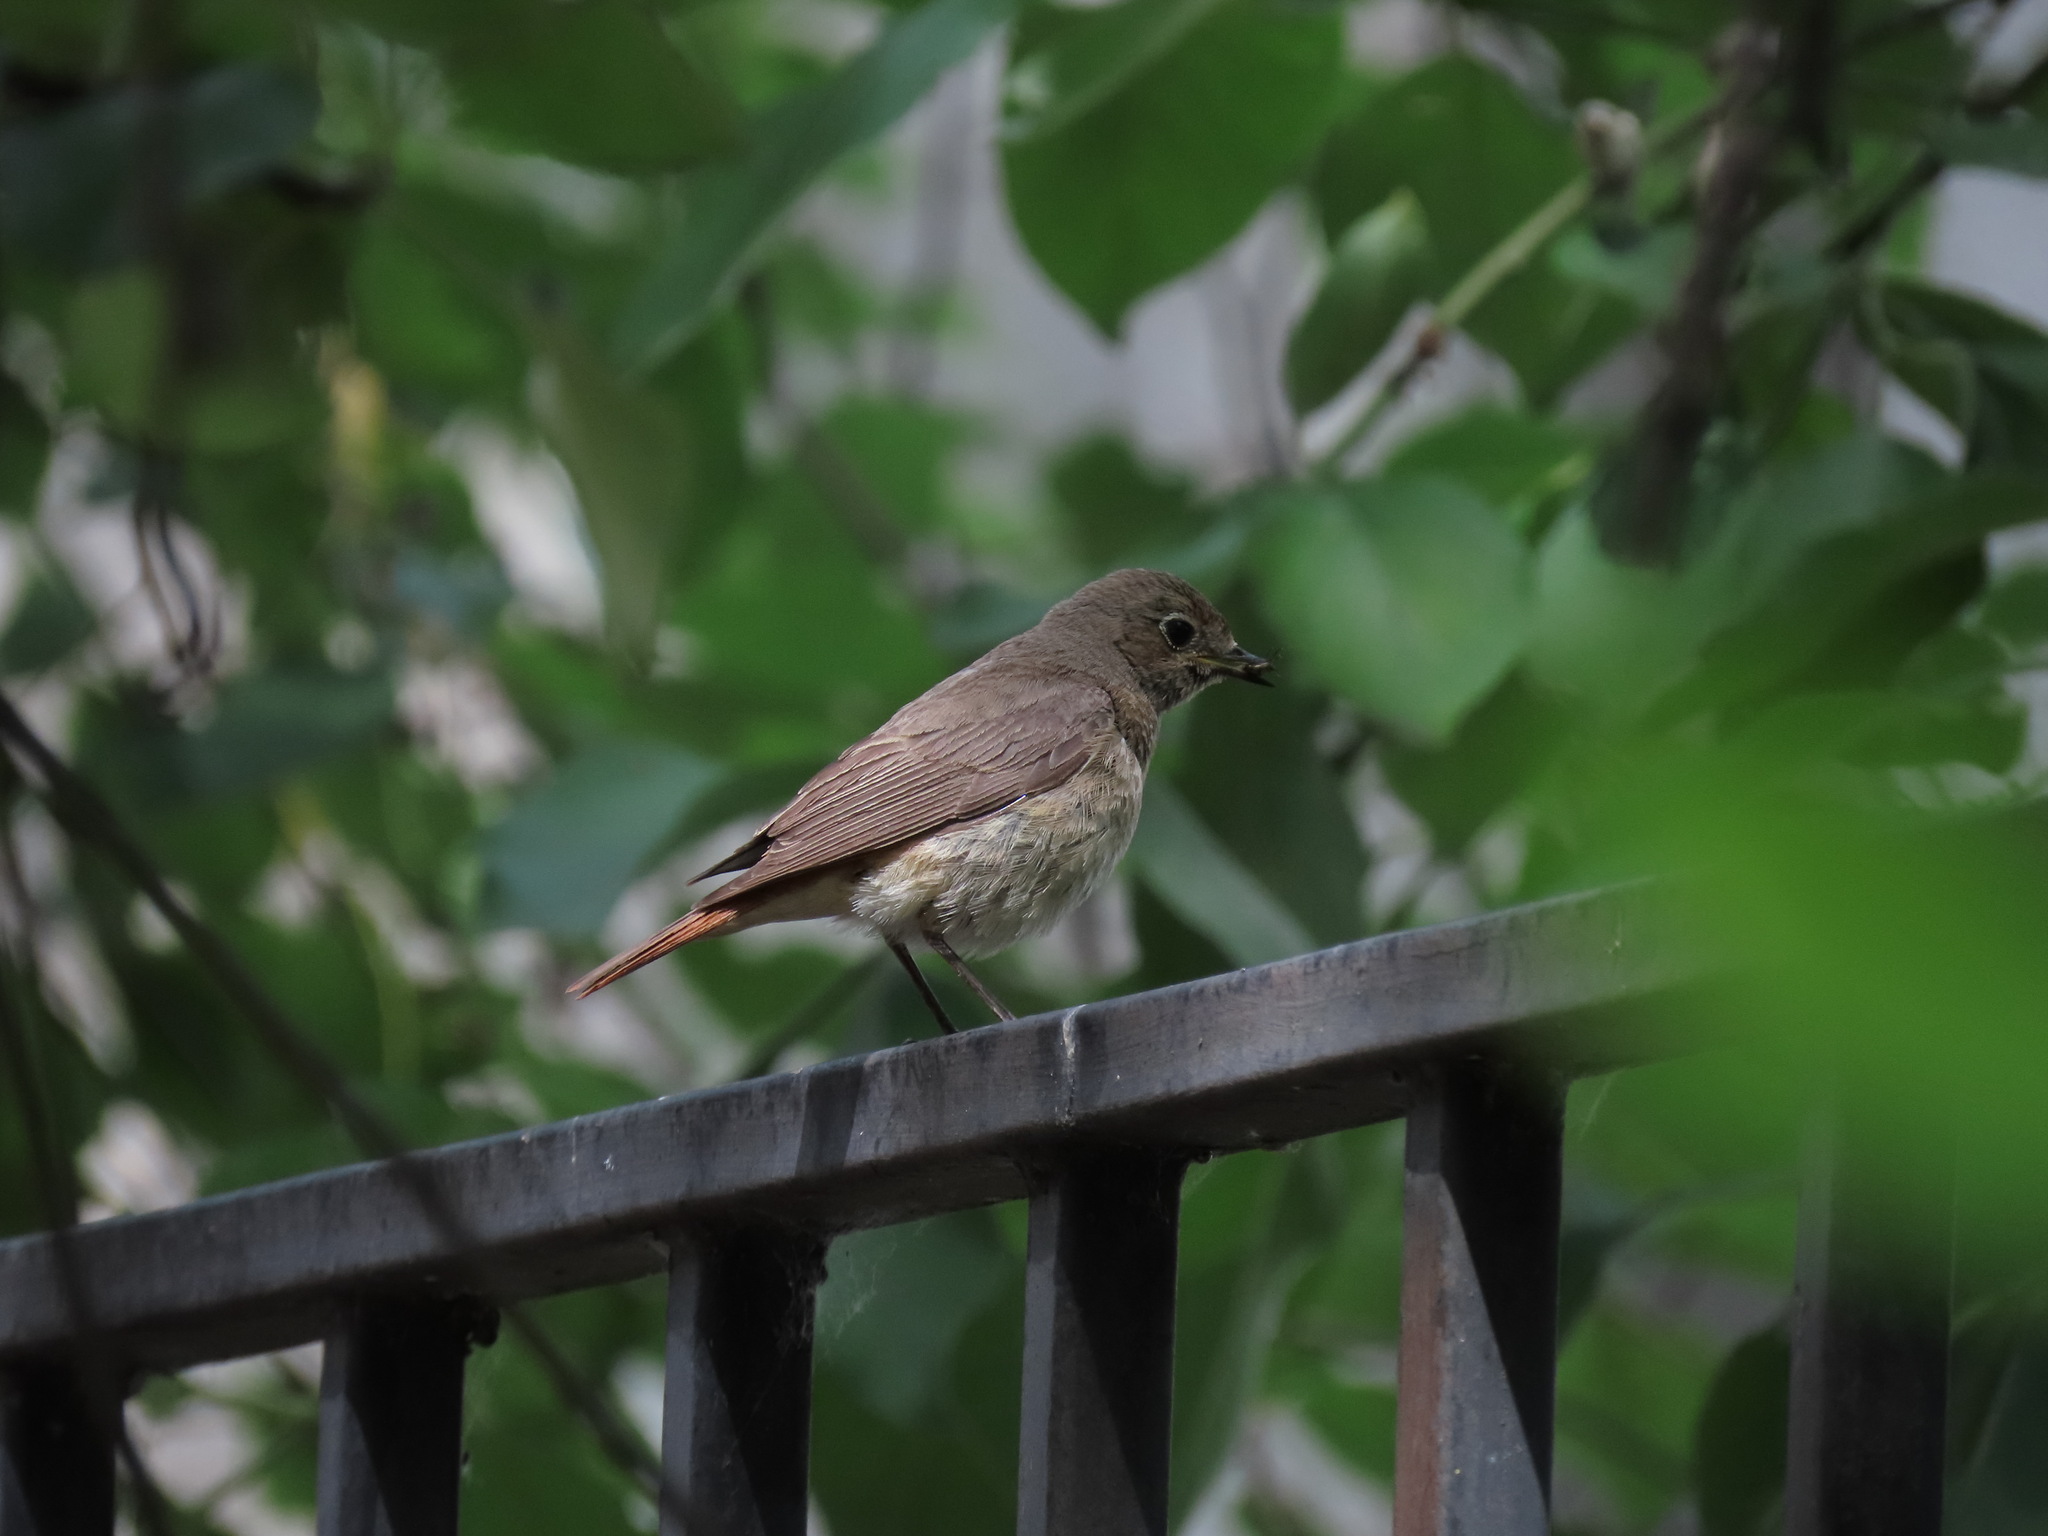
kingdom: Animalia
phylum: Chordata
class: Aves
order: Passeriformes
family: Muscicapidae
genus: Phoenicurus
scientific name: Phoenicurus phoenicurus
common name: Common redstart
